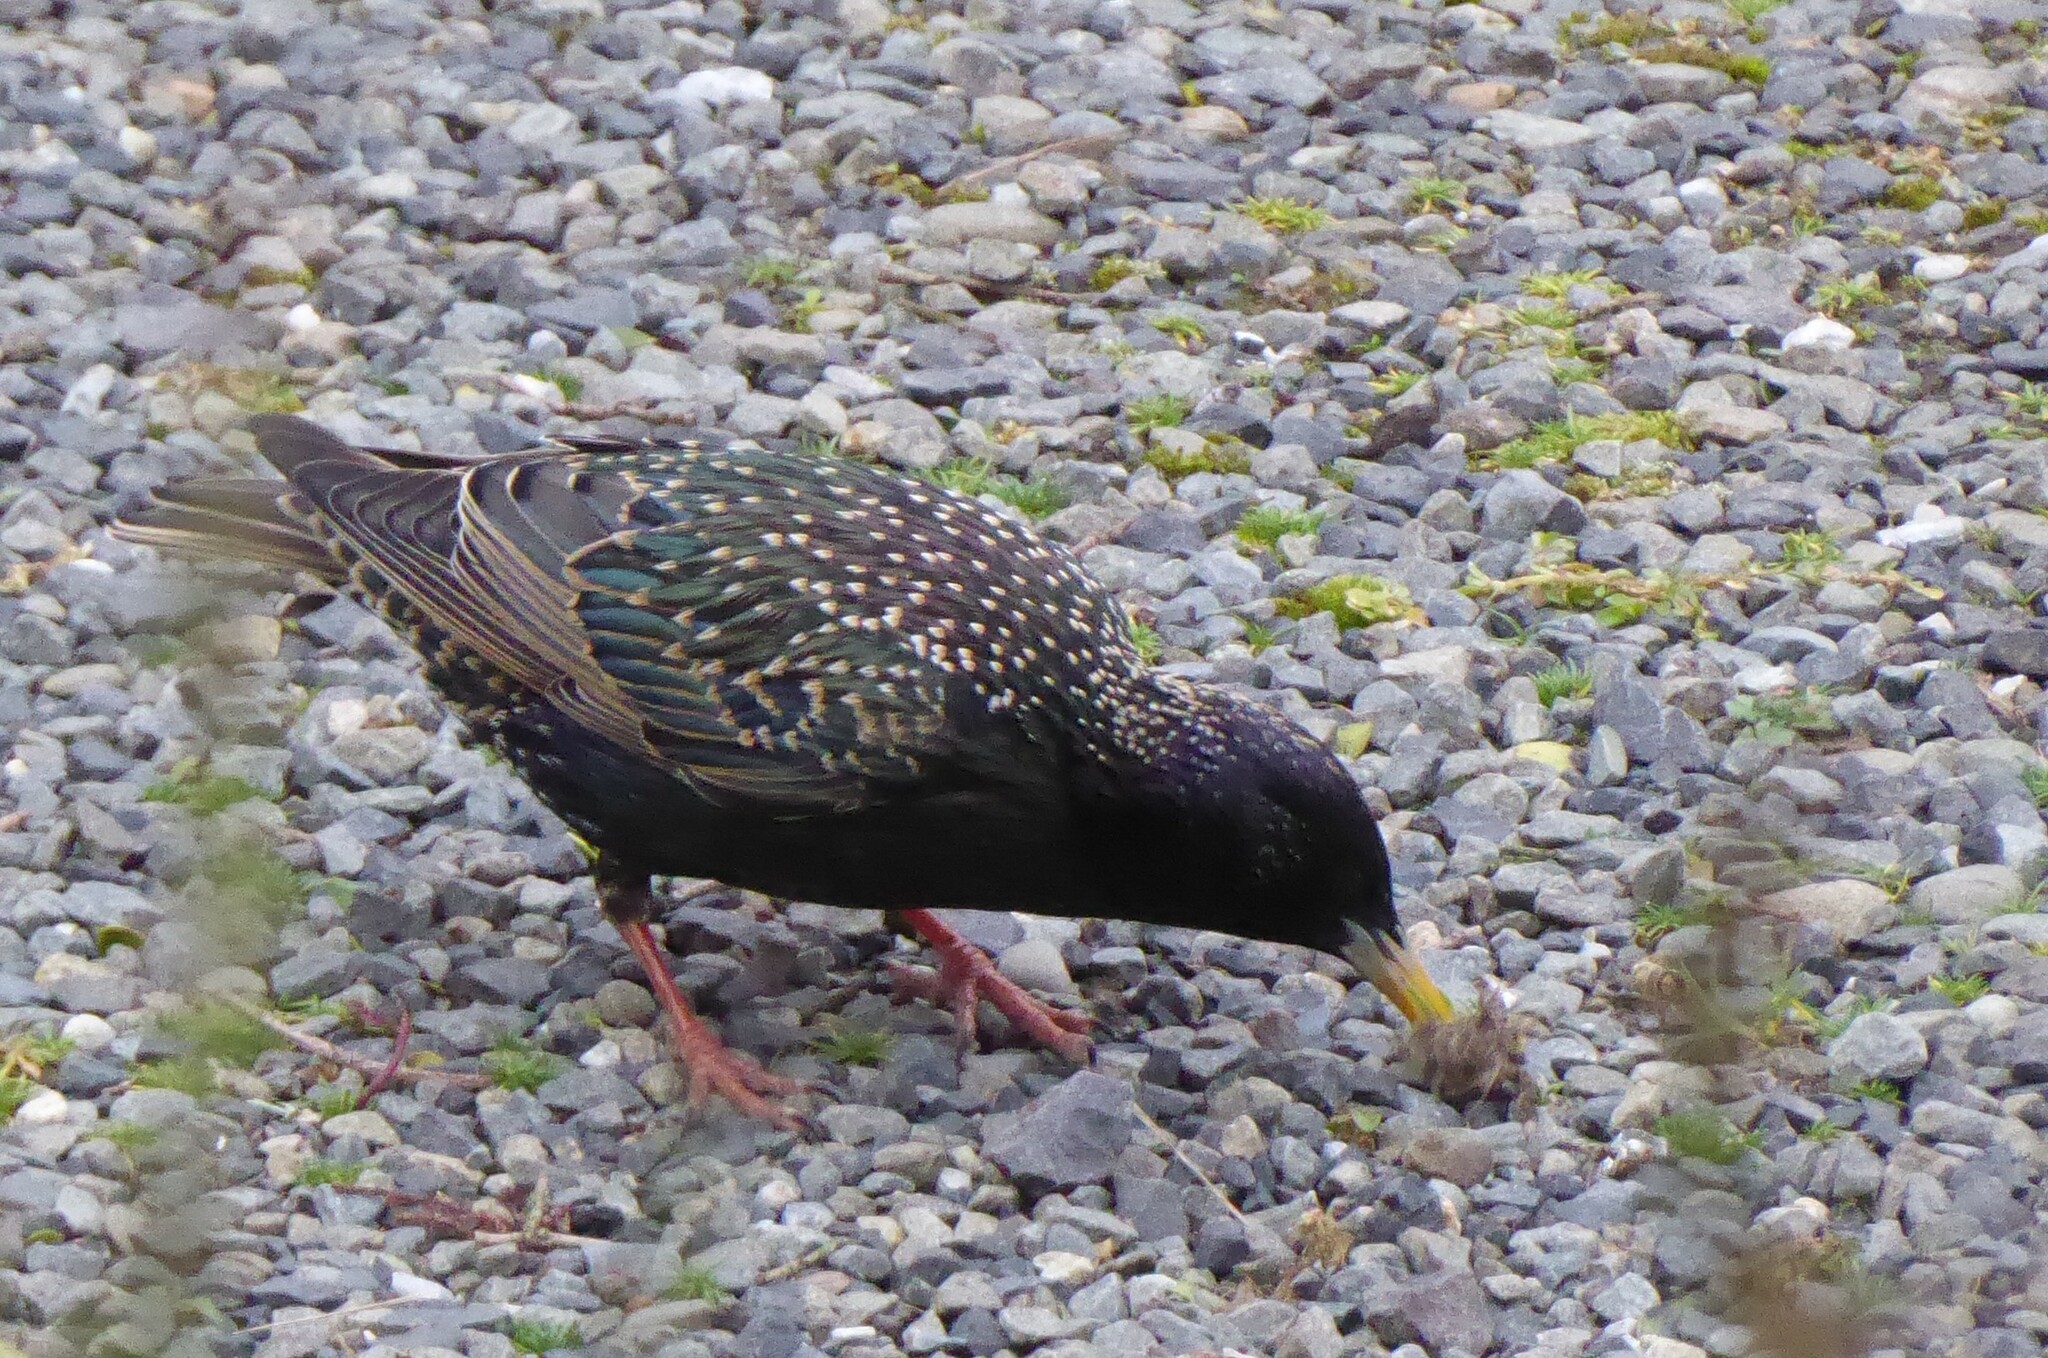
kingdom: Animalia
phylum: Chordata
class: Aves
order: Passeriformes
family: Sturnidae
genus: Sturnus
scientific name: Sturnus vulgaris
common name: Common starling
